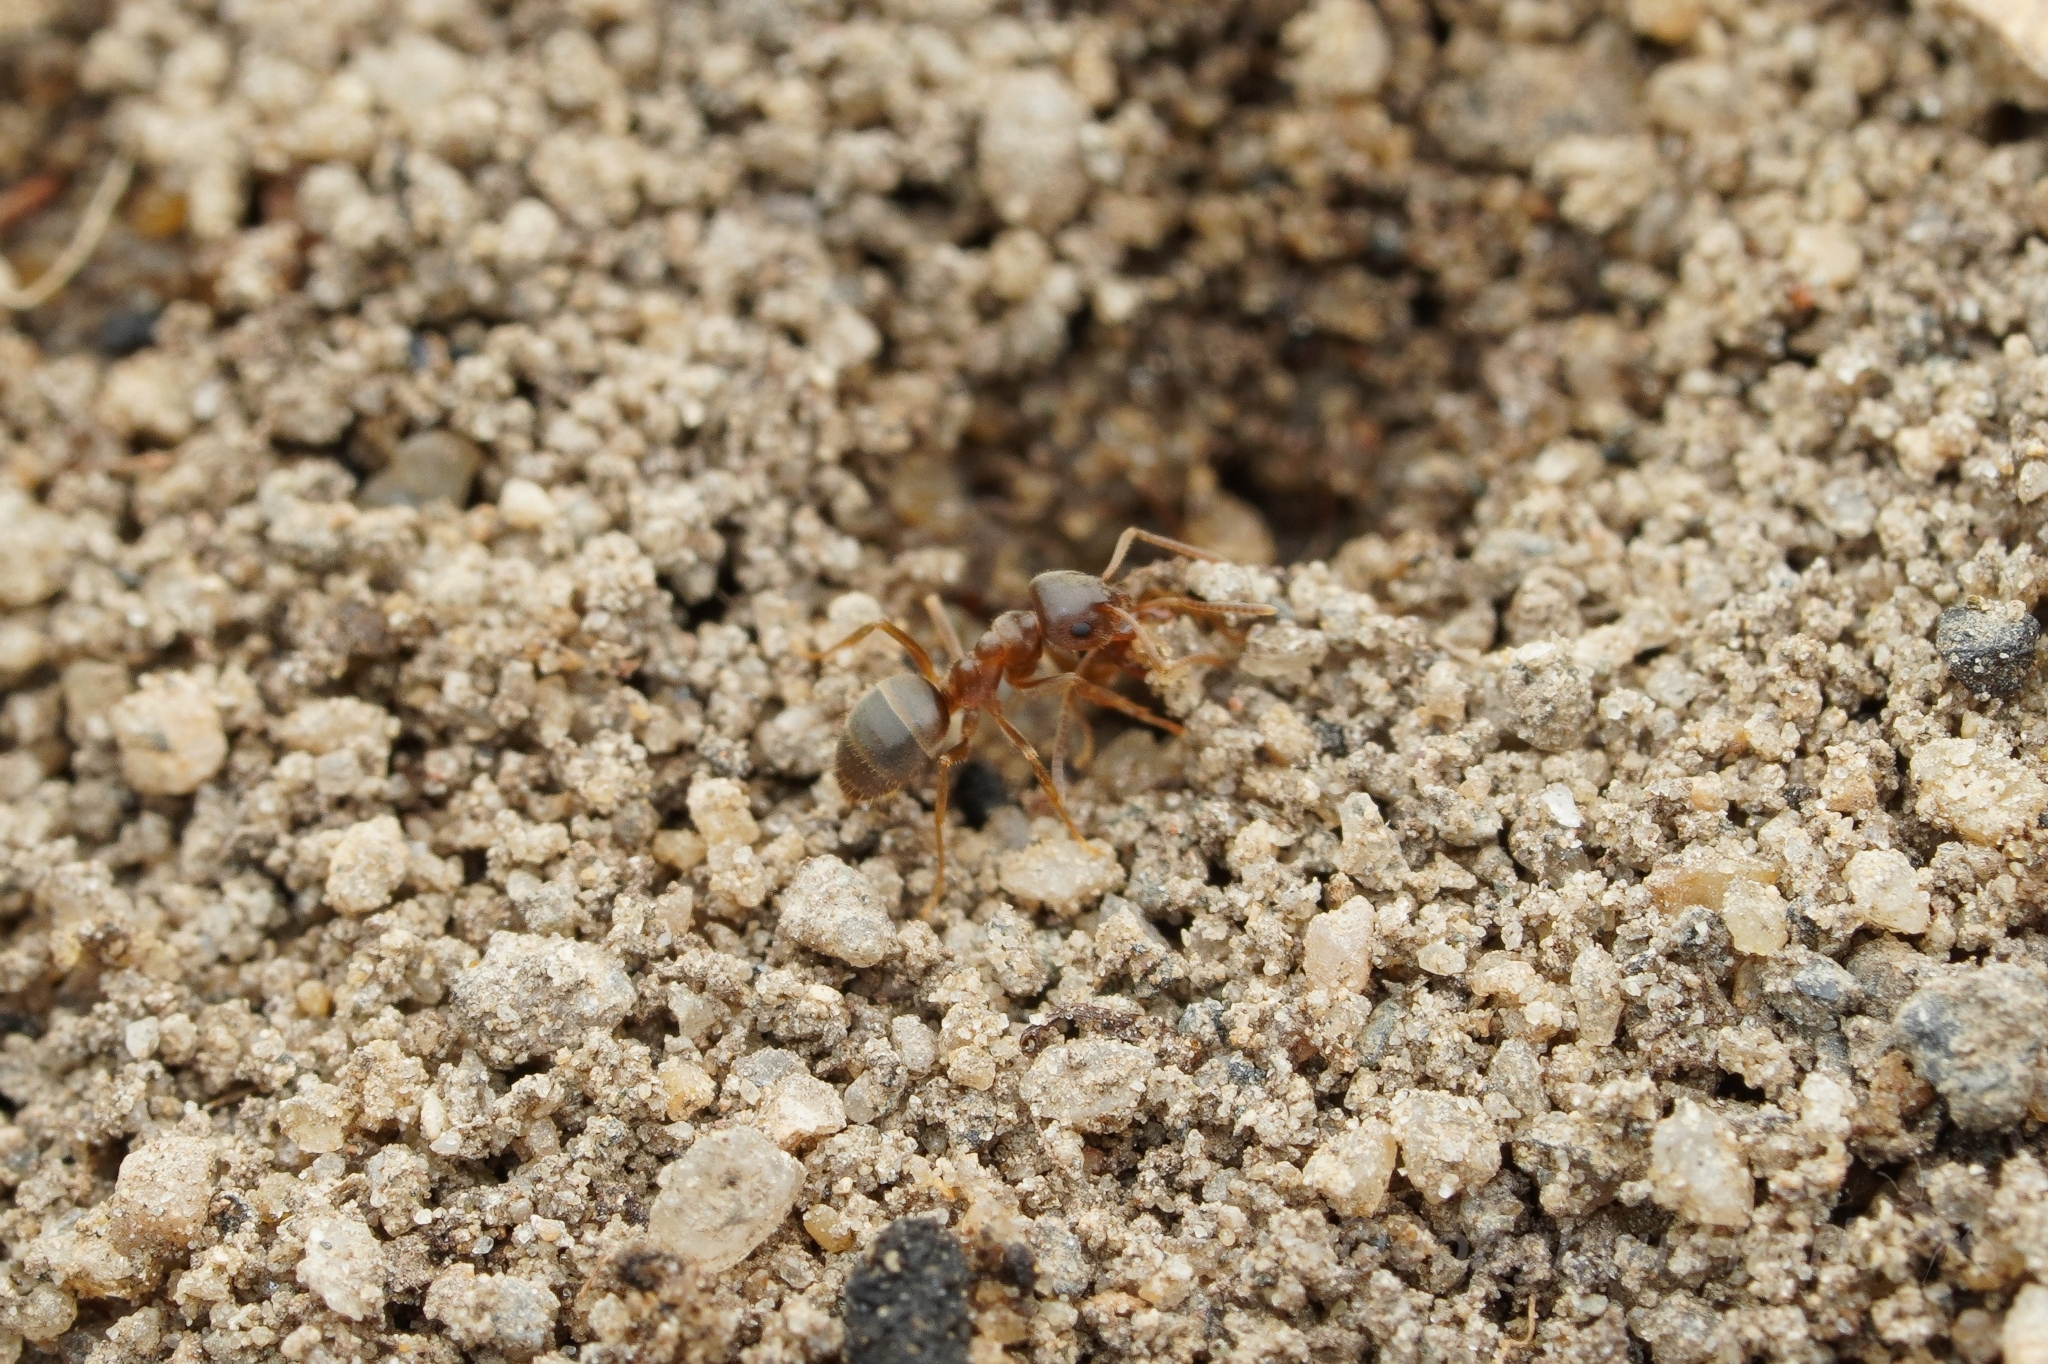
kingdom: Animalia
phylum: Arthropoda
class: Insecta
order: Hymenoptera
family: Formicidae
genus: Lasius
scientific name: Lasius neoniger
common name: Turfgrass ant
